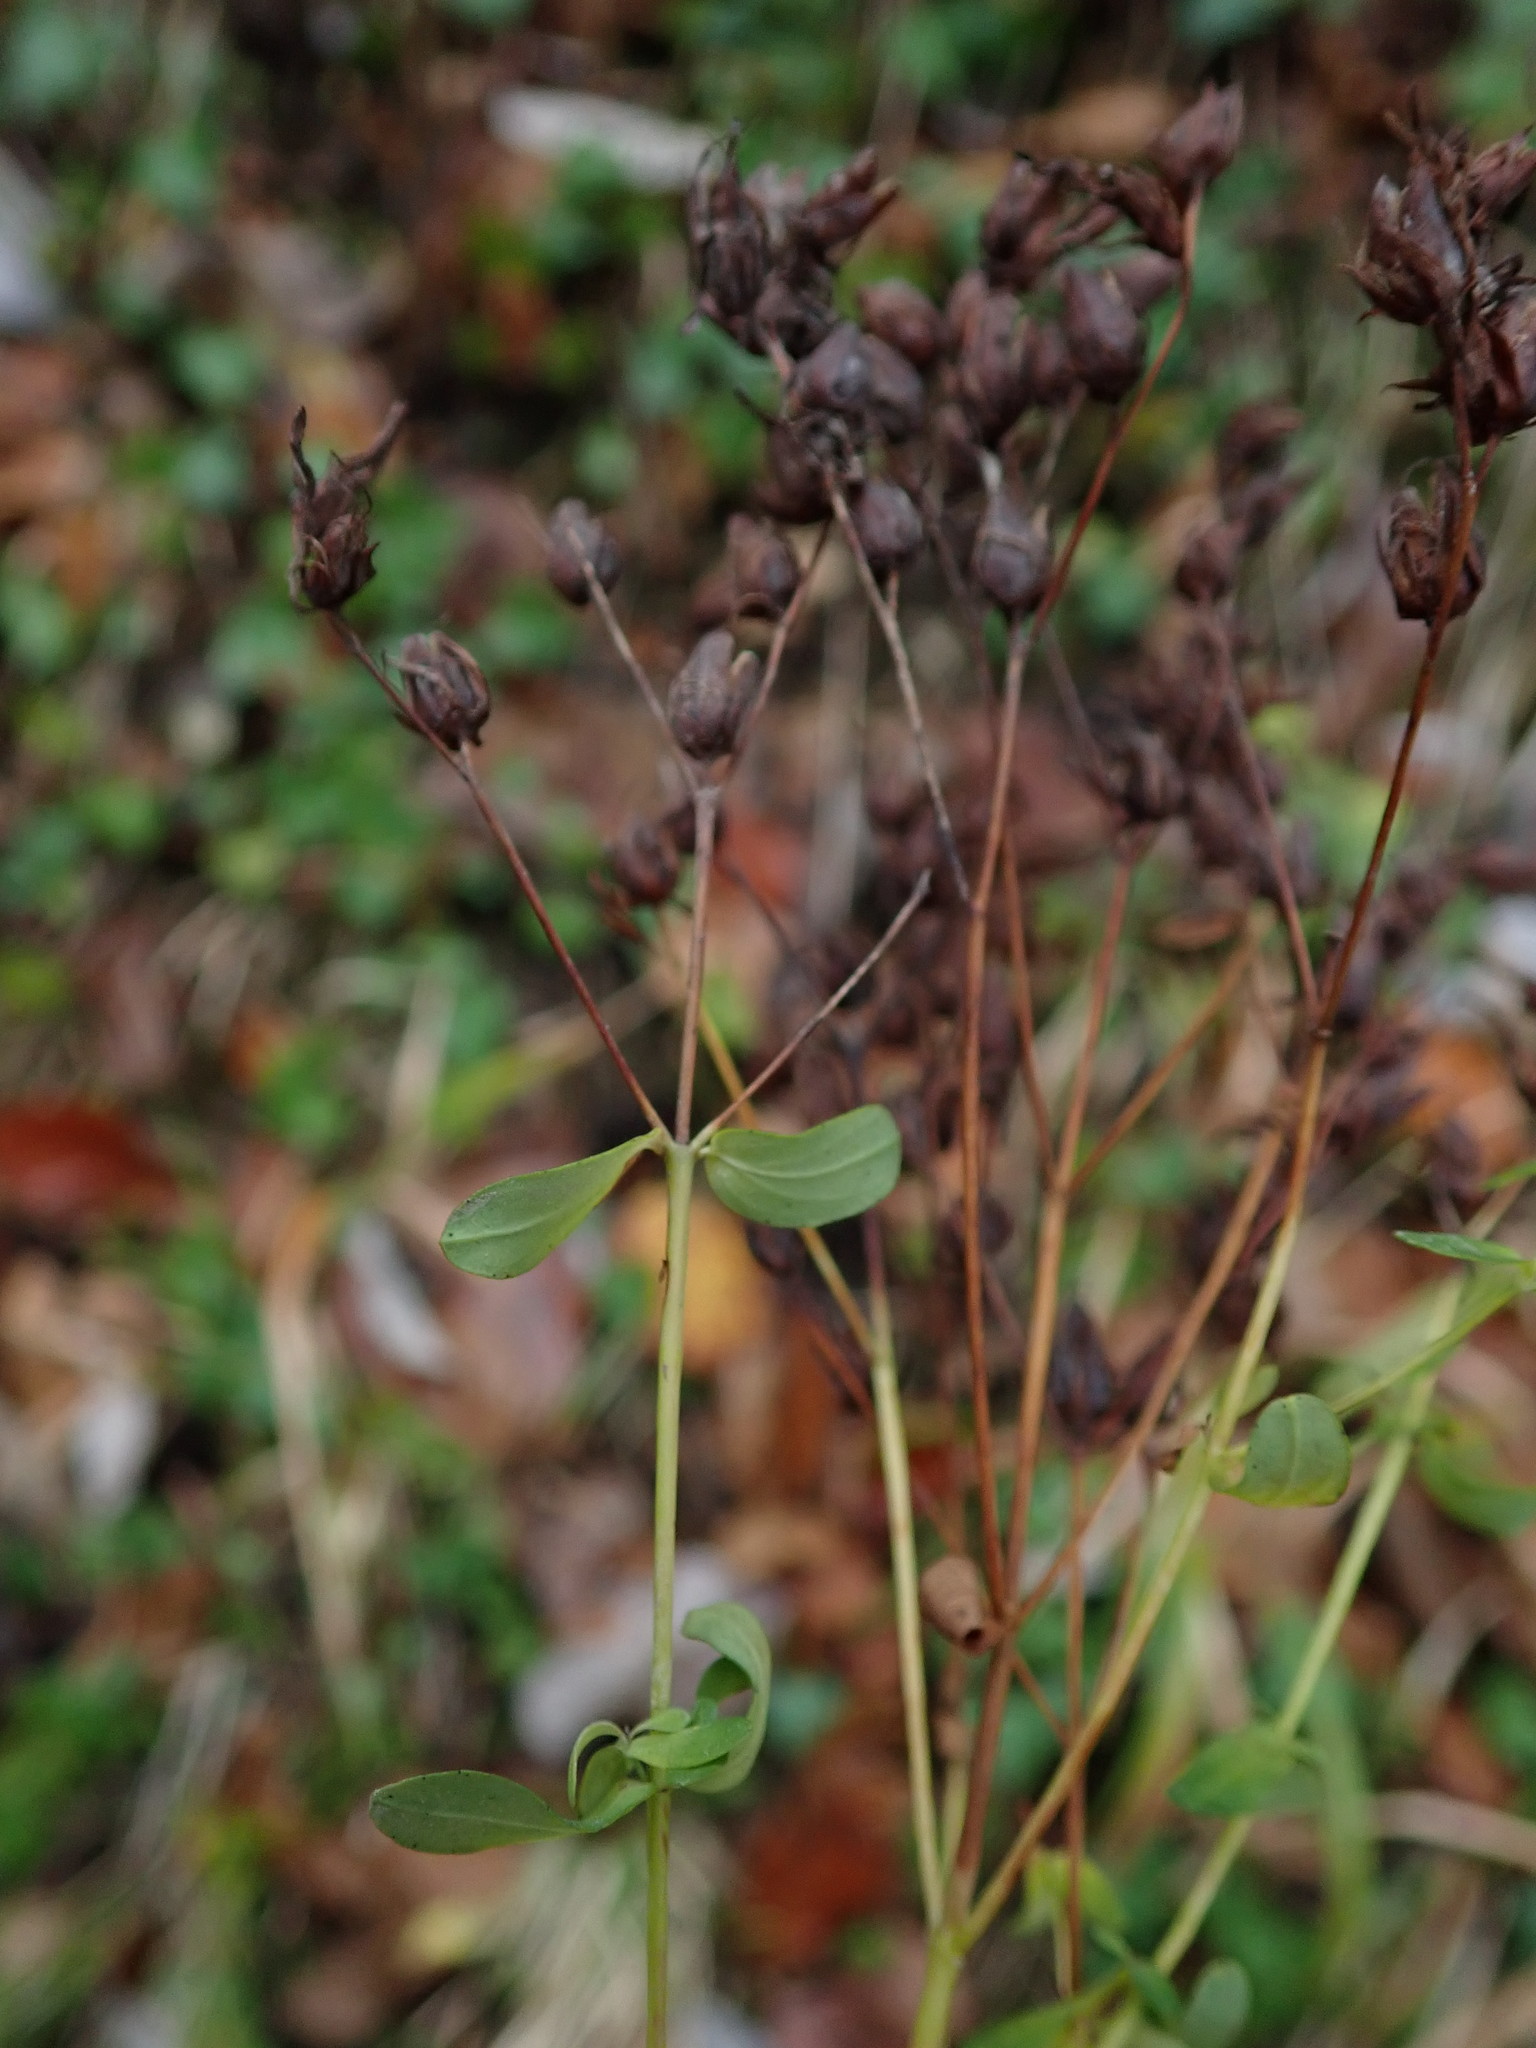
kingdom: Plantae
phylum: Tracheophyta
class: Magnoliopsida
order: Malpighiales
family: Hypericaceae
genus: Hypericum
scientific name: Hypericum perforatum
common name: Common st. johnswort
